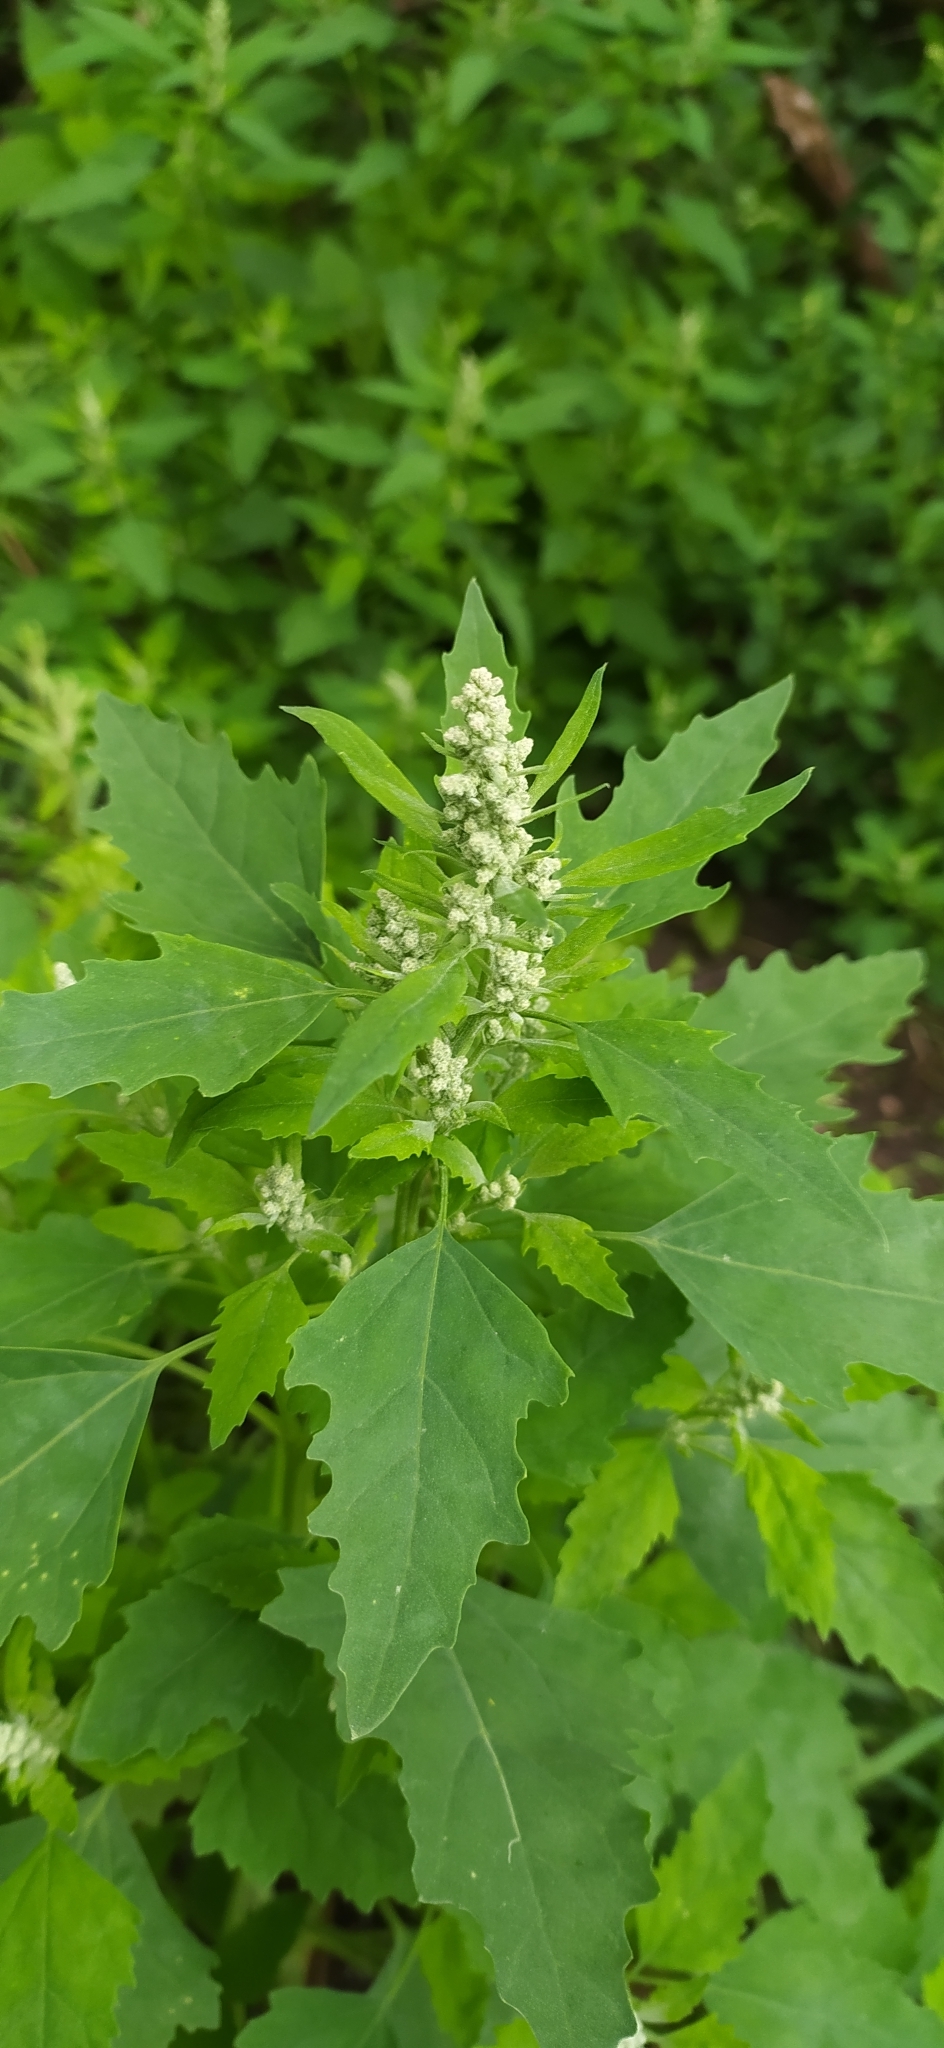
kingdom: Plantae
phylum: Tracheophyta
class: Magnoliopsida
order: Caryophyllales
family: Amaranthaceae
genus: Chenopodium
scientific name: Chenopodium album
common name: Fat-hen
